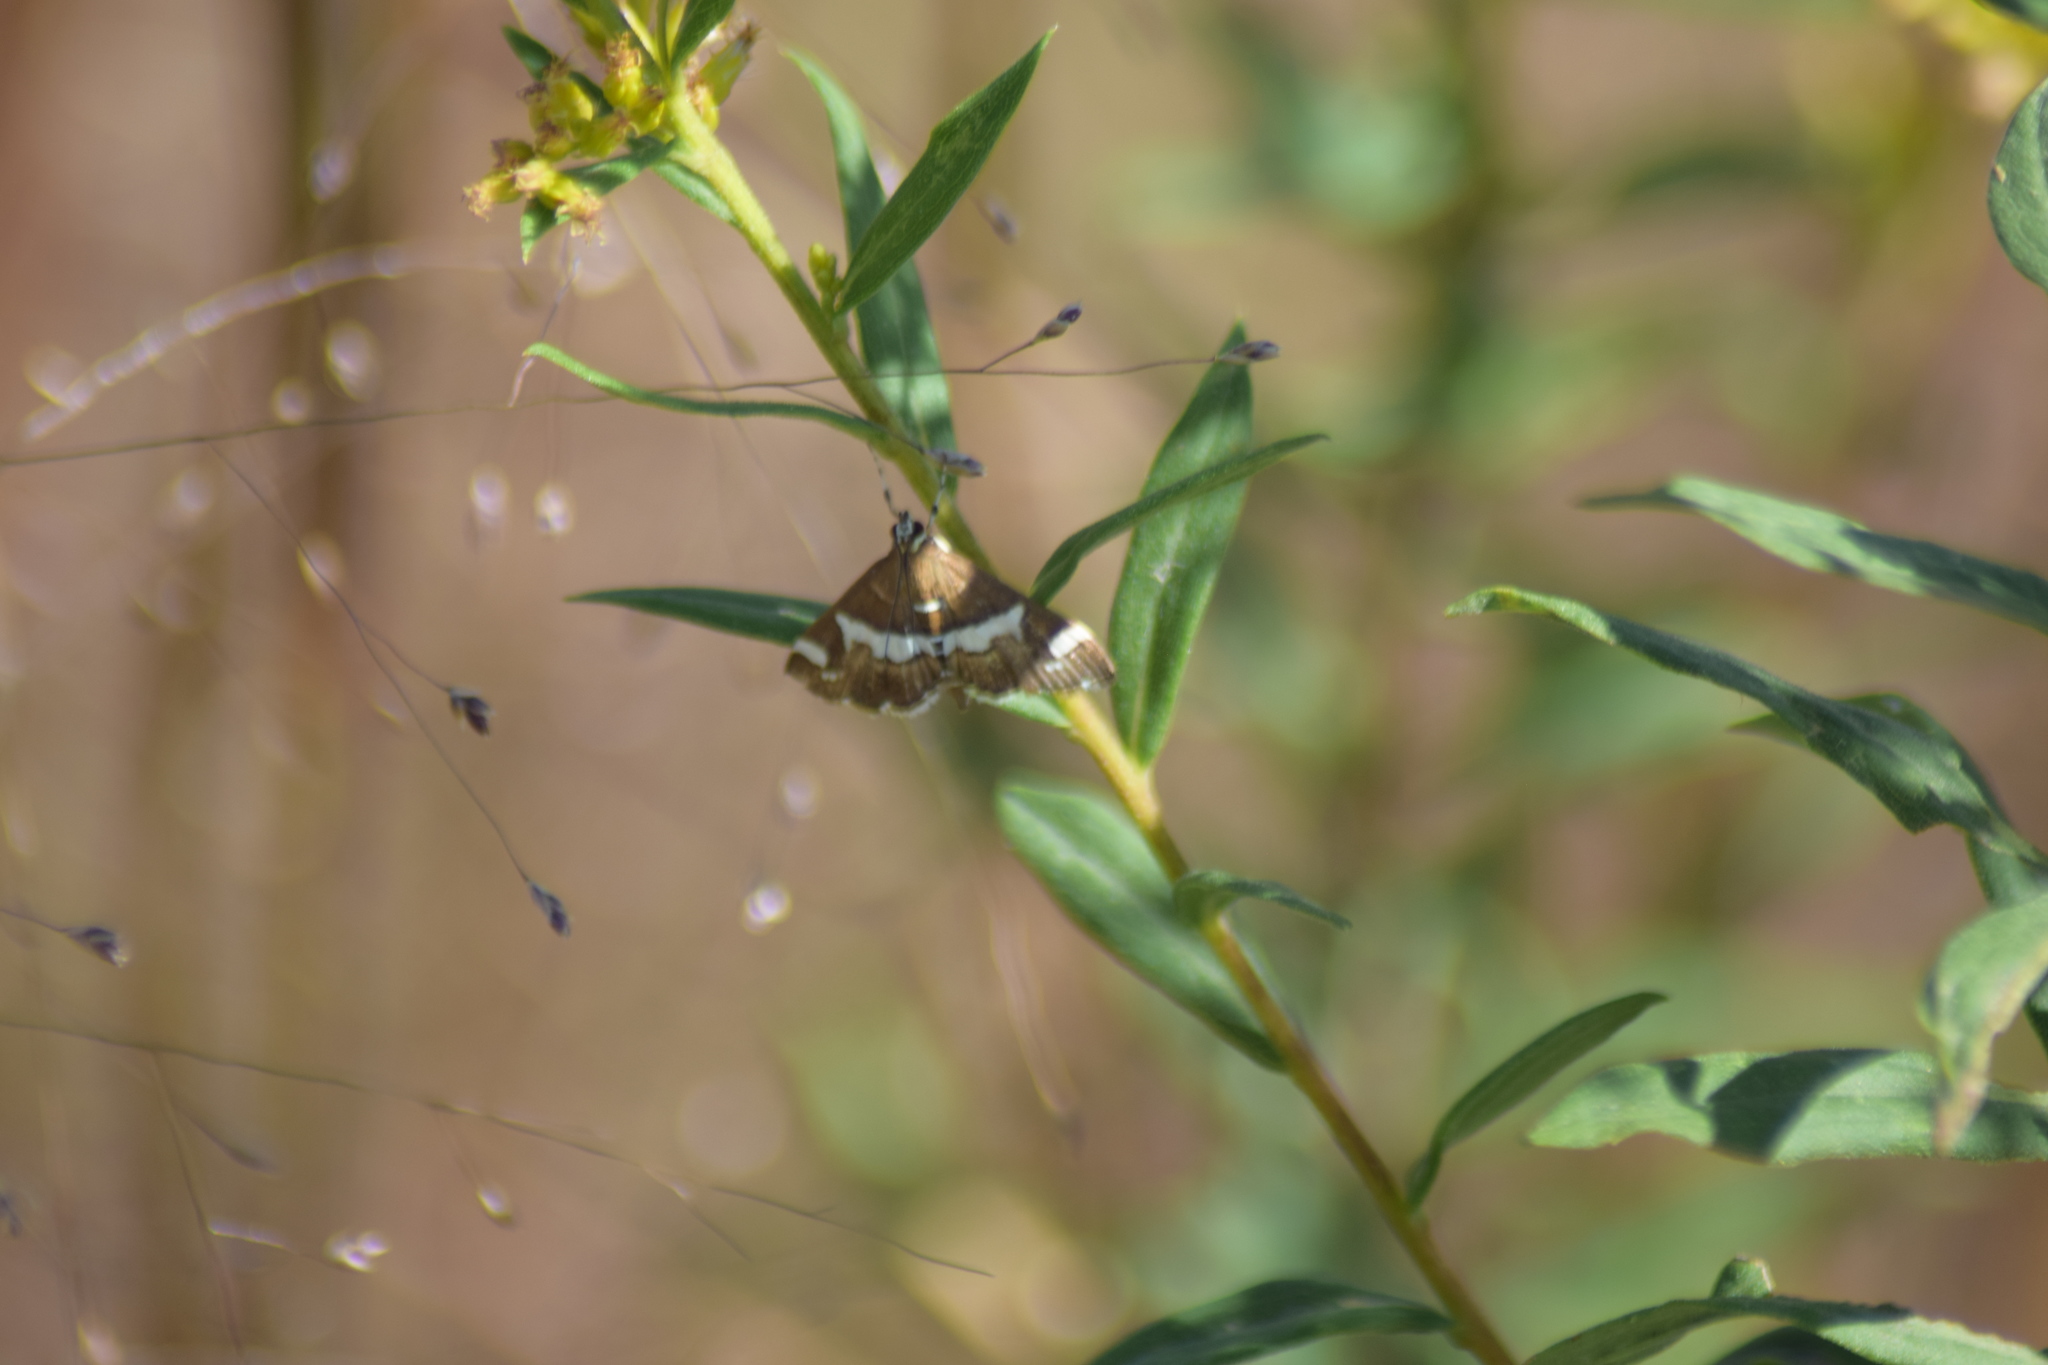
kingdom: Animalia
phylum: Arthropoda
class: Insecta
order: Lepidoptera
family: Crambidae
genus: Spoladea
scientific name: Spoladea recurvalis
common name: Beet webworm moth
